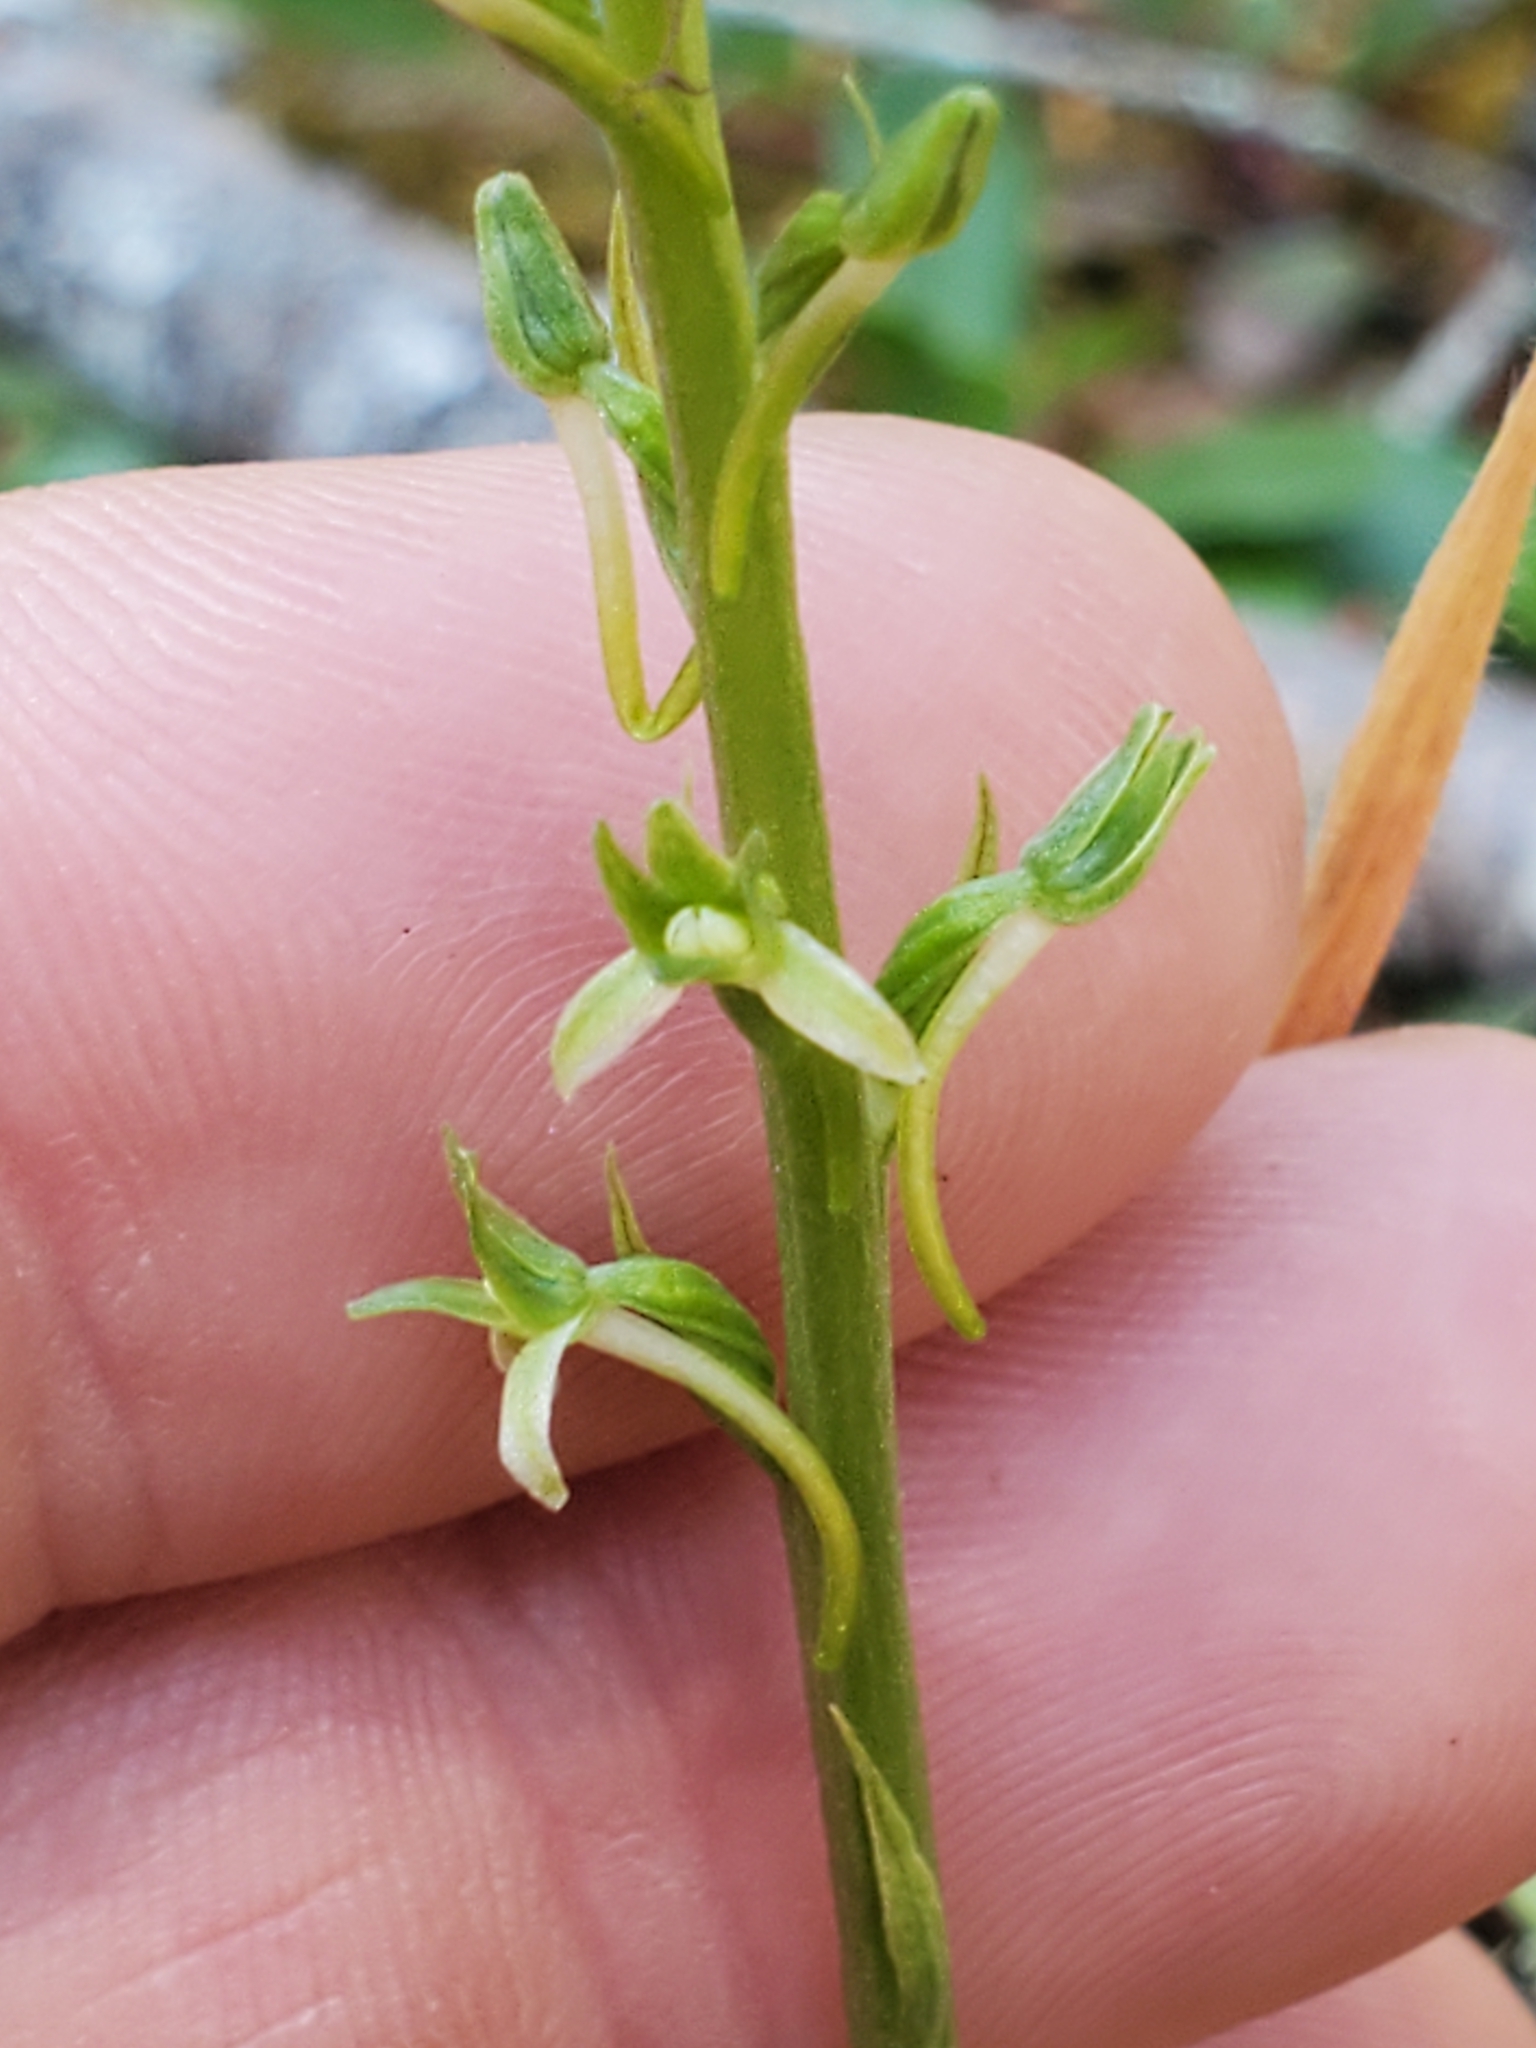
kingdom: Plantae
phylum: Tracheophyta
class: Liliopsida
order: Asparagales
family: Orchidaceae
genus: Platanthera
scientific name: Platanthera elongata
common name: Dense-flowered rein orchid
